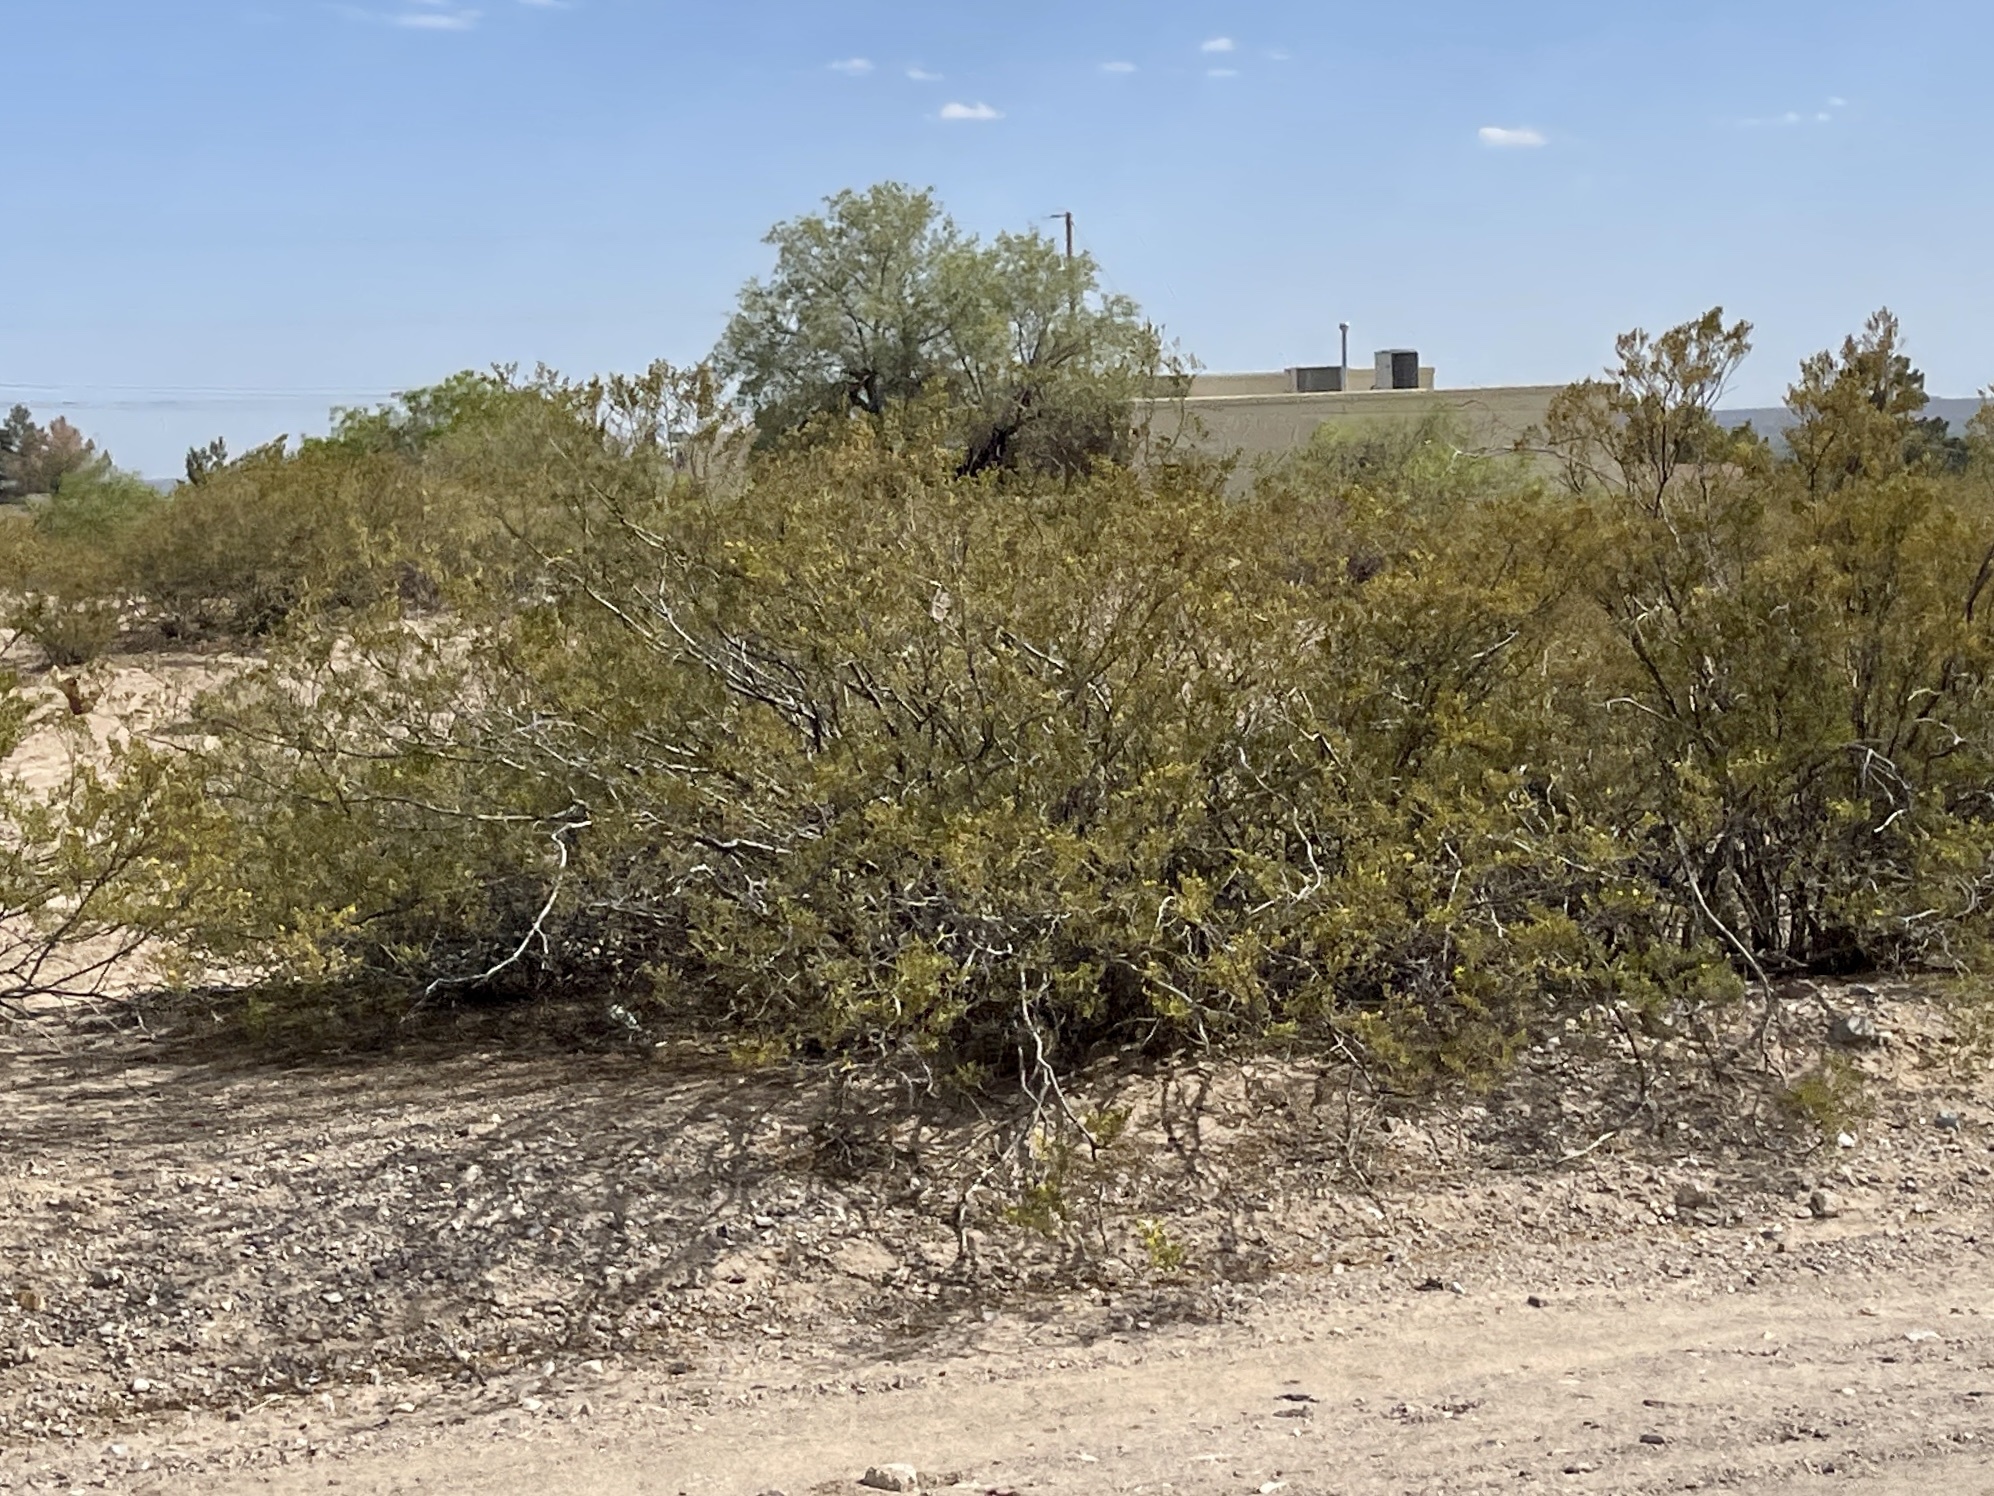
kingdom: Plantae
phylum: Tracheophyta
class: Magnoliopsida
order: Zygophyllales
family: Zygophyllaceae
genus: Larrea
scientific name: Larrea tridentata
